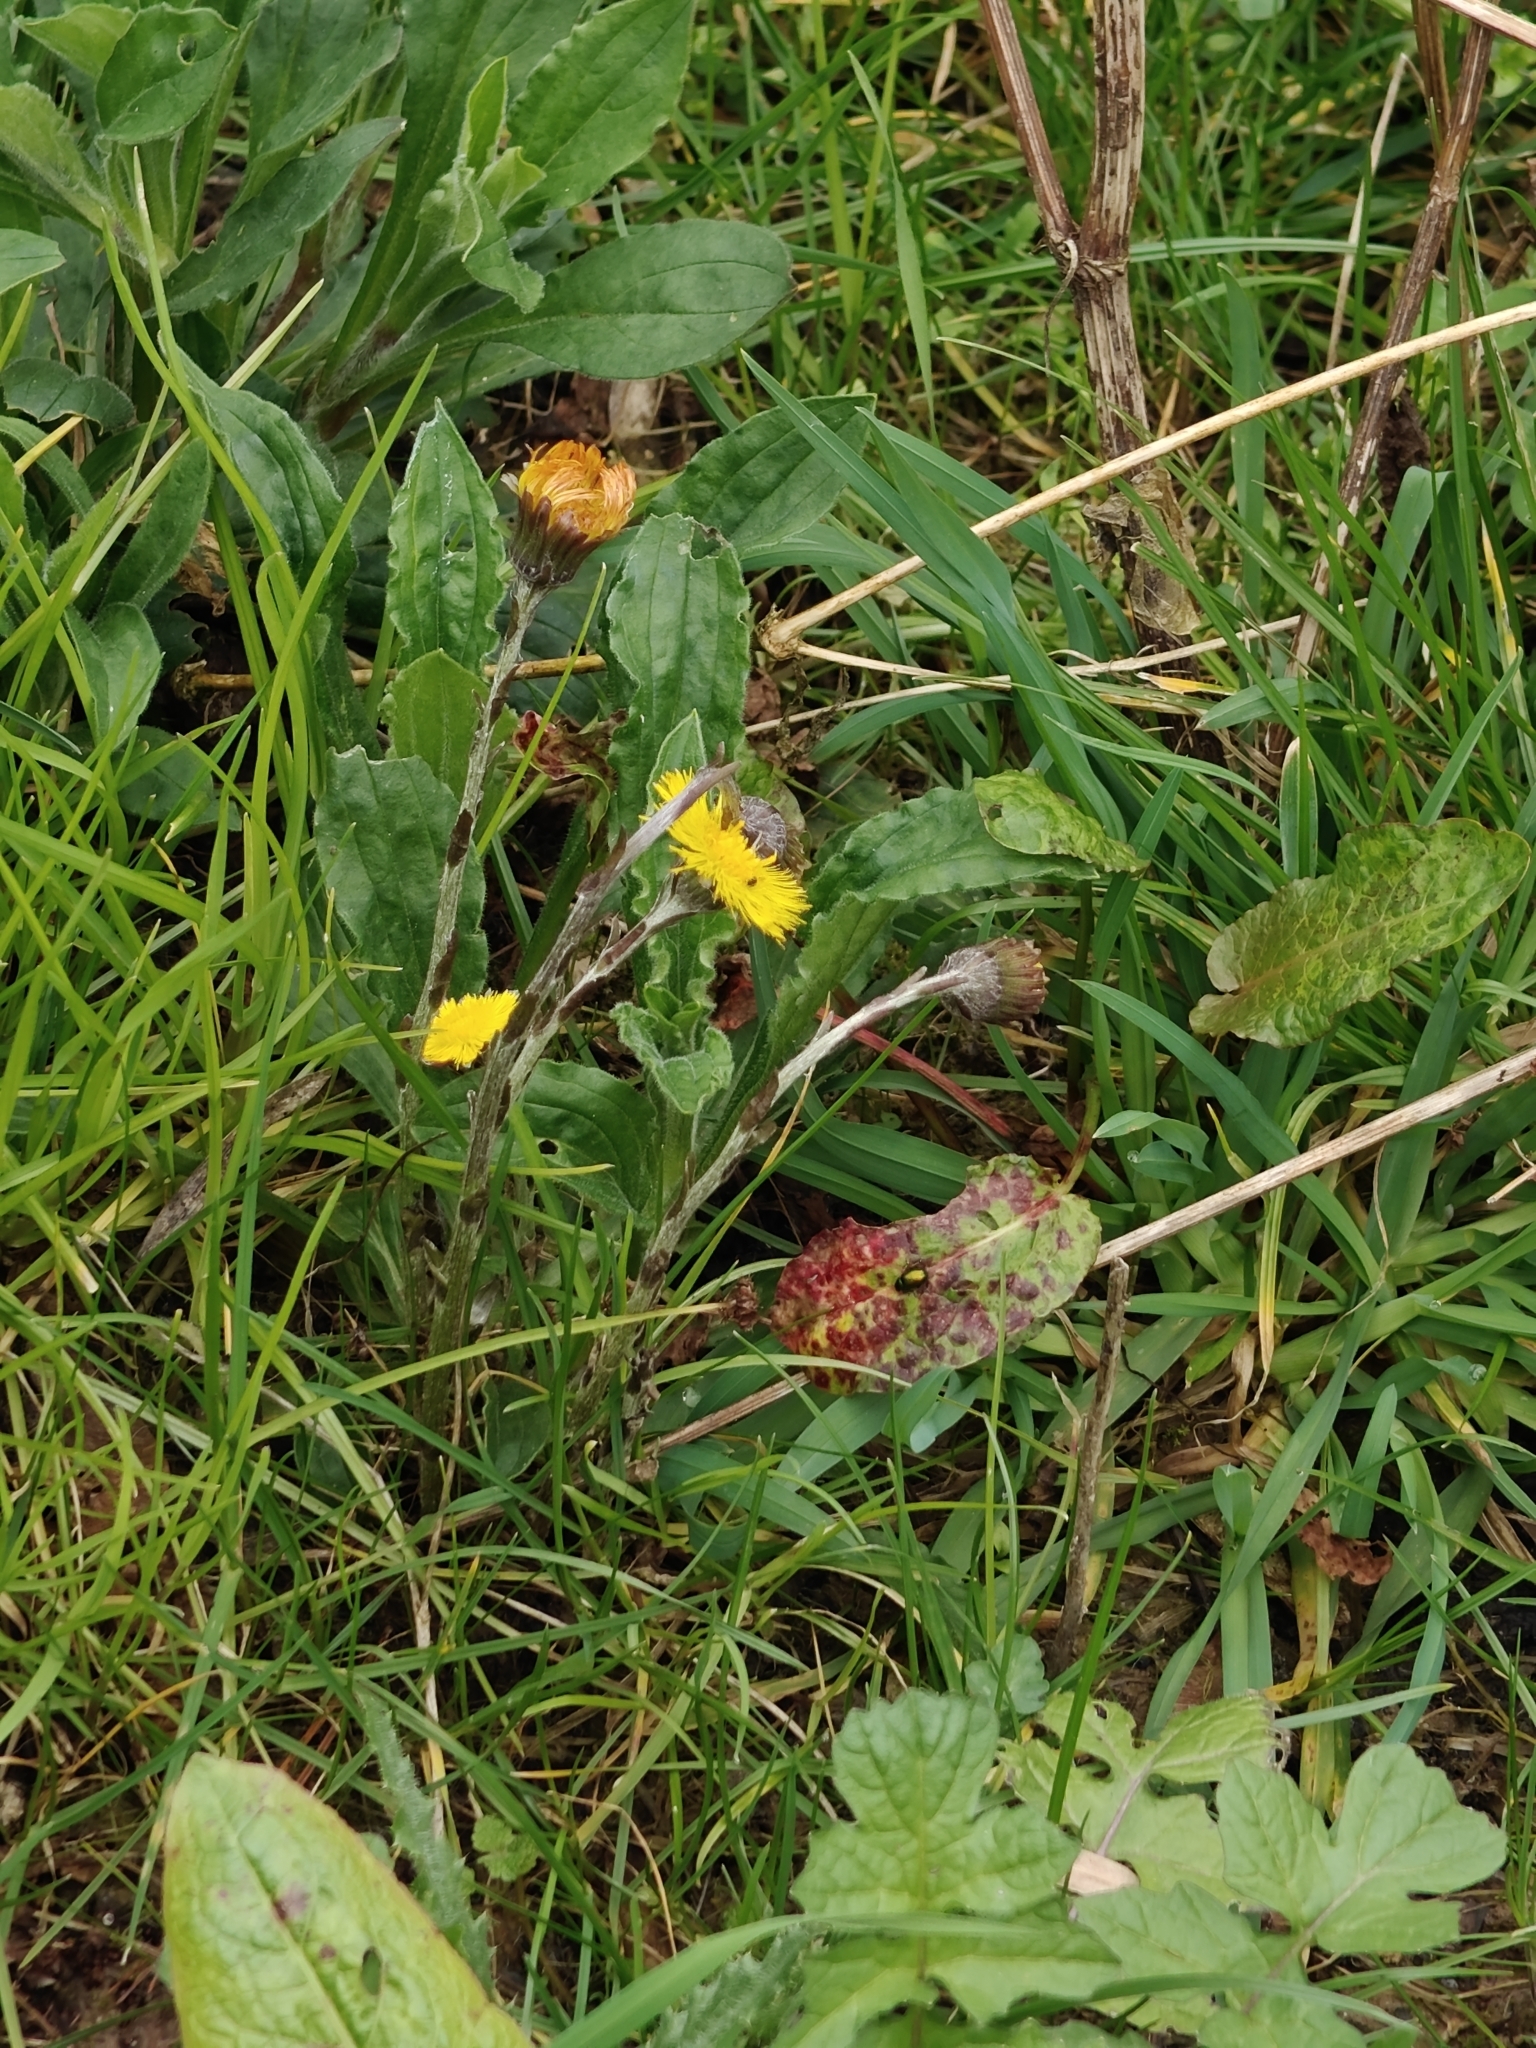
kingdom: Plantae
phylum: Tracheophyta
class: Magnoliopsida
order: Asterales
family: Asteraceae
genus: Tussilago
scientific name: Tussilago farfara
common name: Coltsfoot
